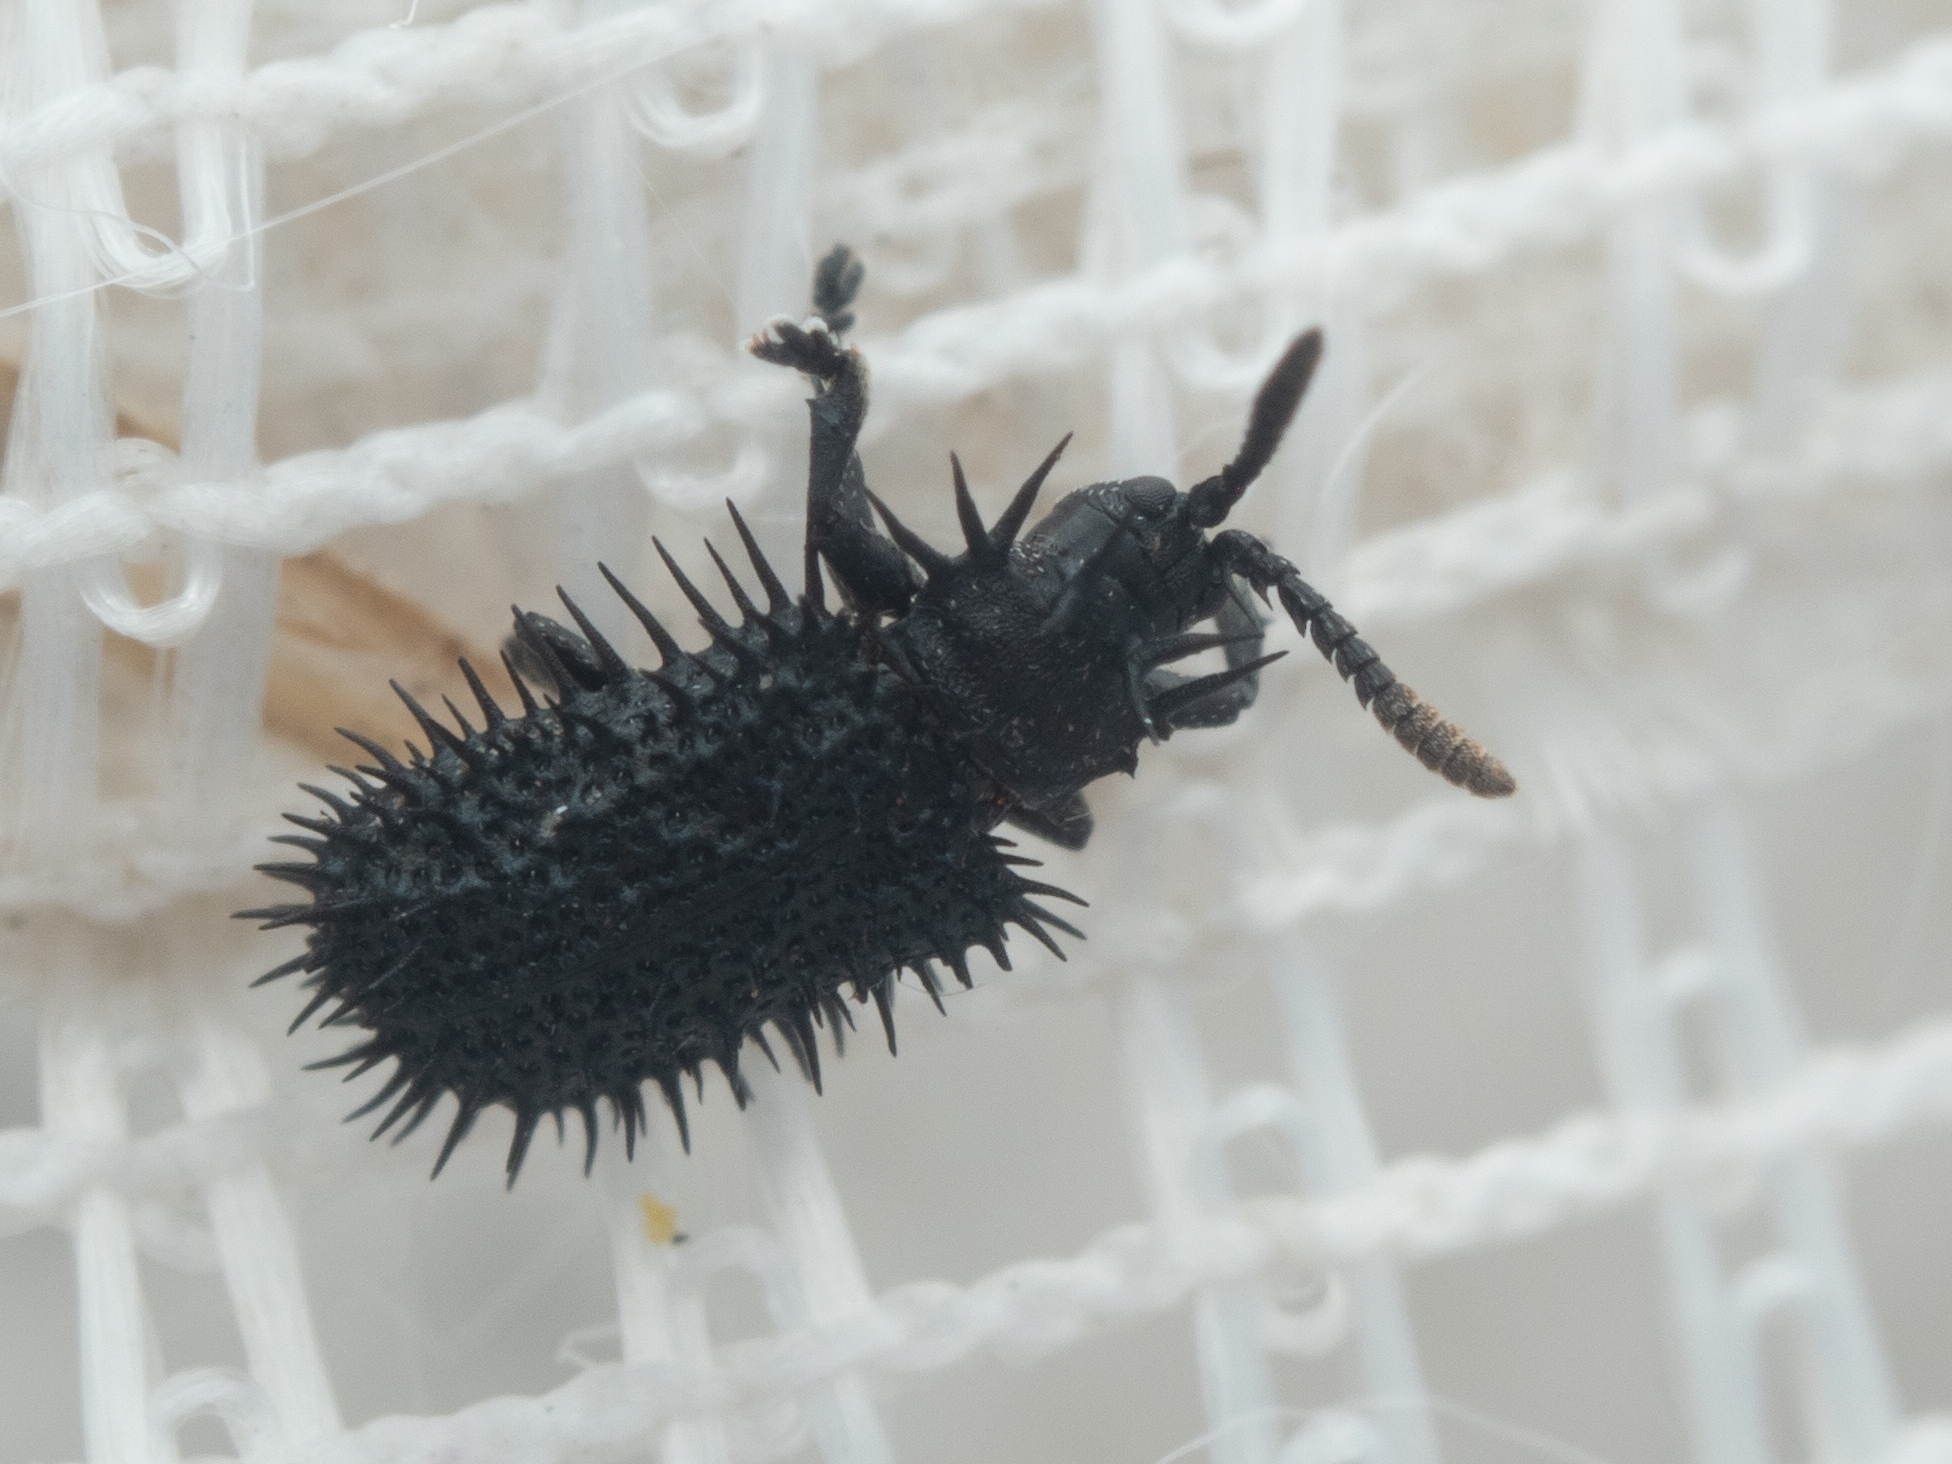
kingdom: Animalia
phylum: Arthropoda
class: Insecta
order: Coleoptera
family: Chrysomelidae
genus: Hispa
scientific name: Hispa atra
